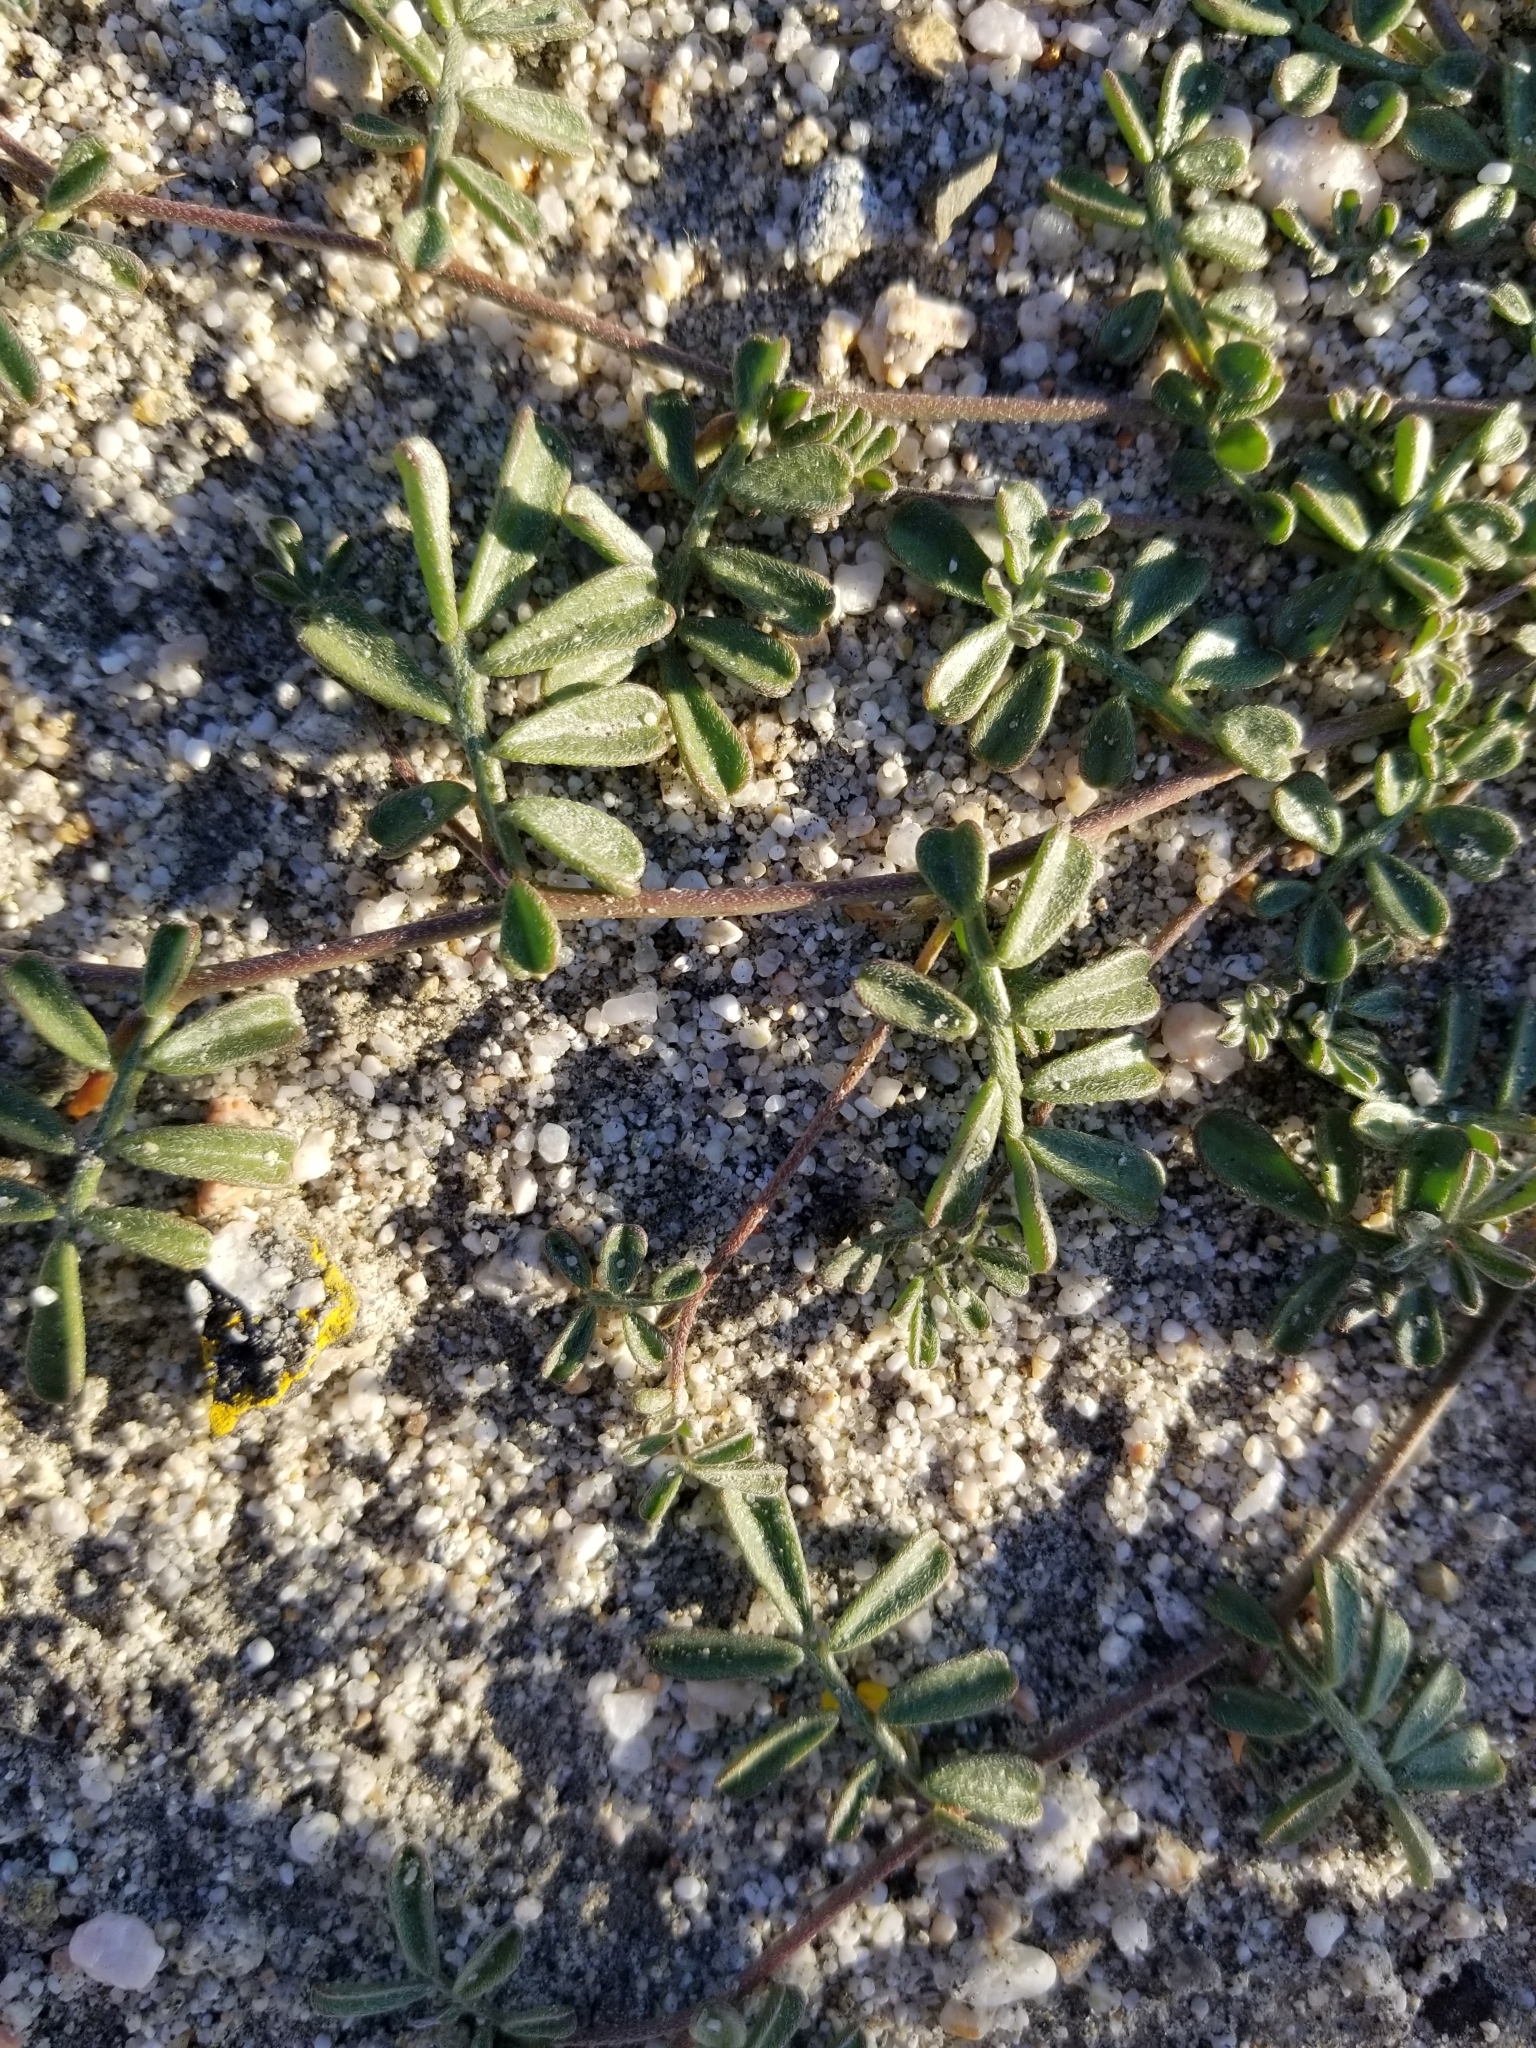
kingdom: Plantae
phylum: Tracheophyta
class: Magnoliopsida
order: Fabales
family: Fabaceae
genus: Acmispon
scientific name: Acmispon strigosus
